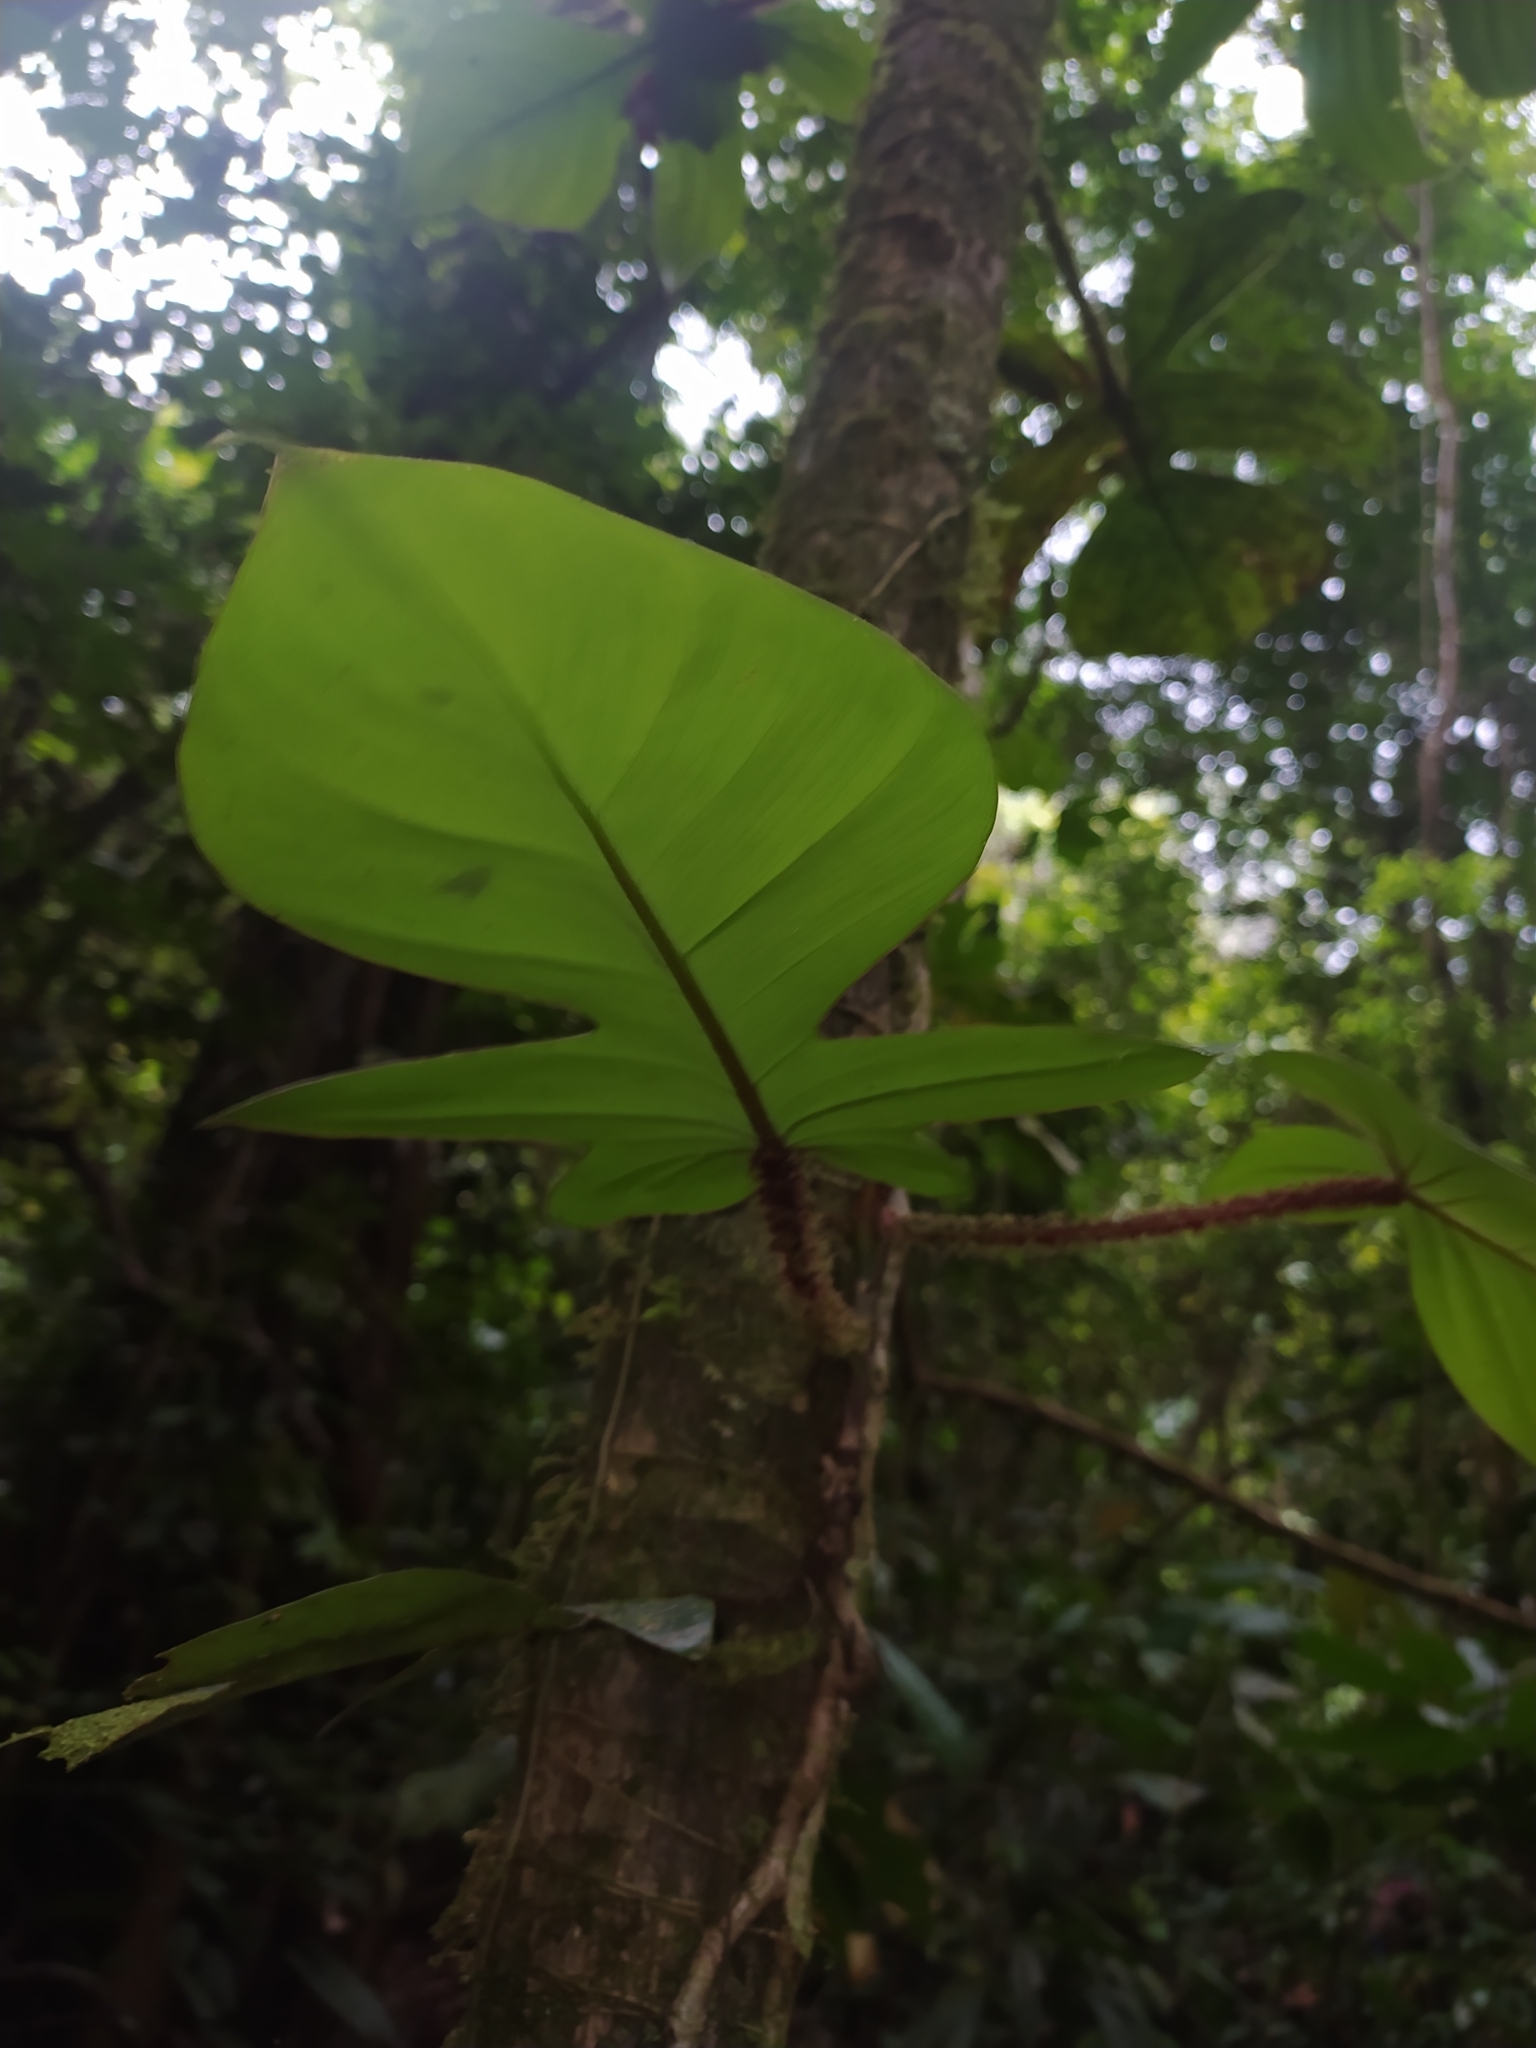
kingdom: Plantae
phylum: Tracheophyta
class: Liliopsida
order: Alismatales
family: Araceae
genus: Philodendron
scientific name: Philodendron squamiferum
